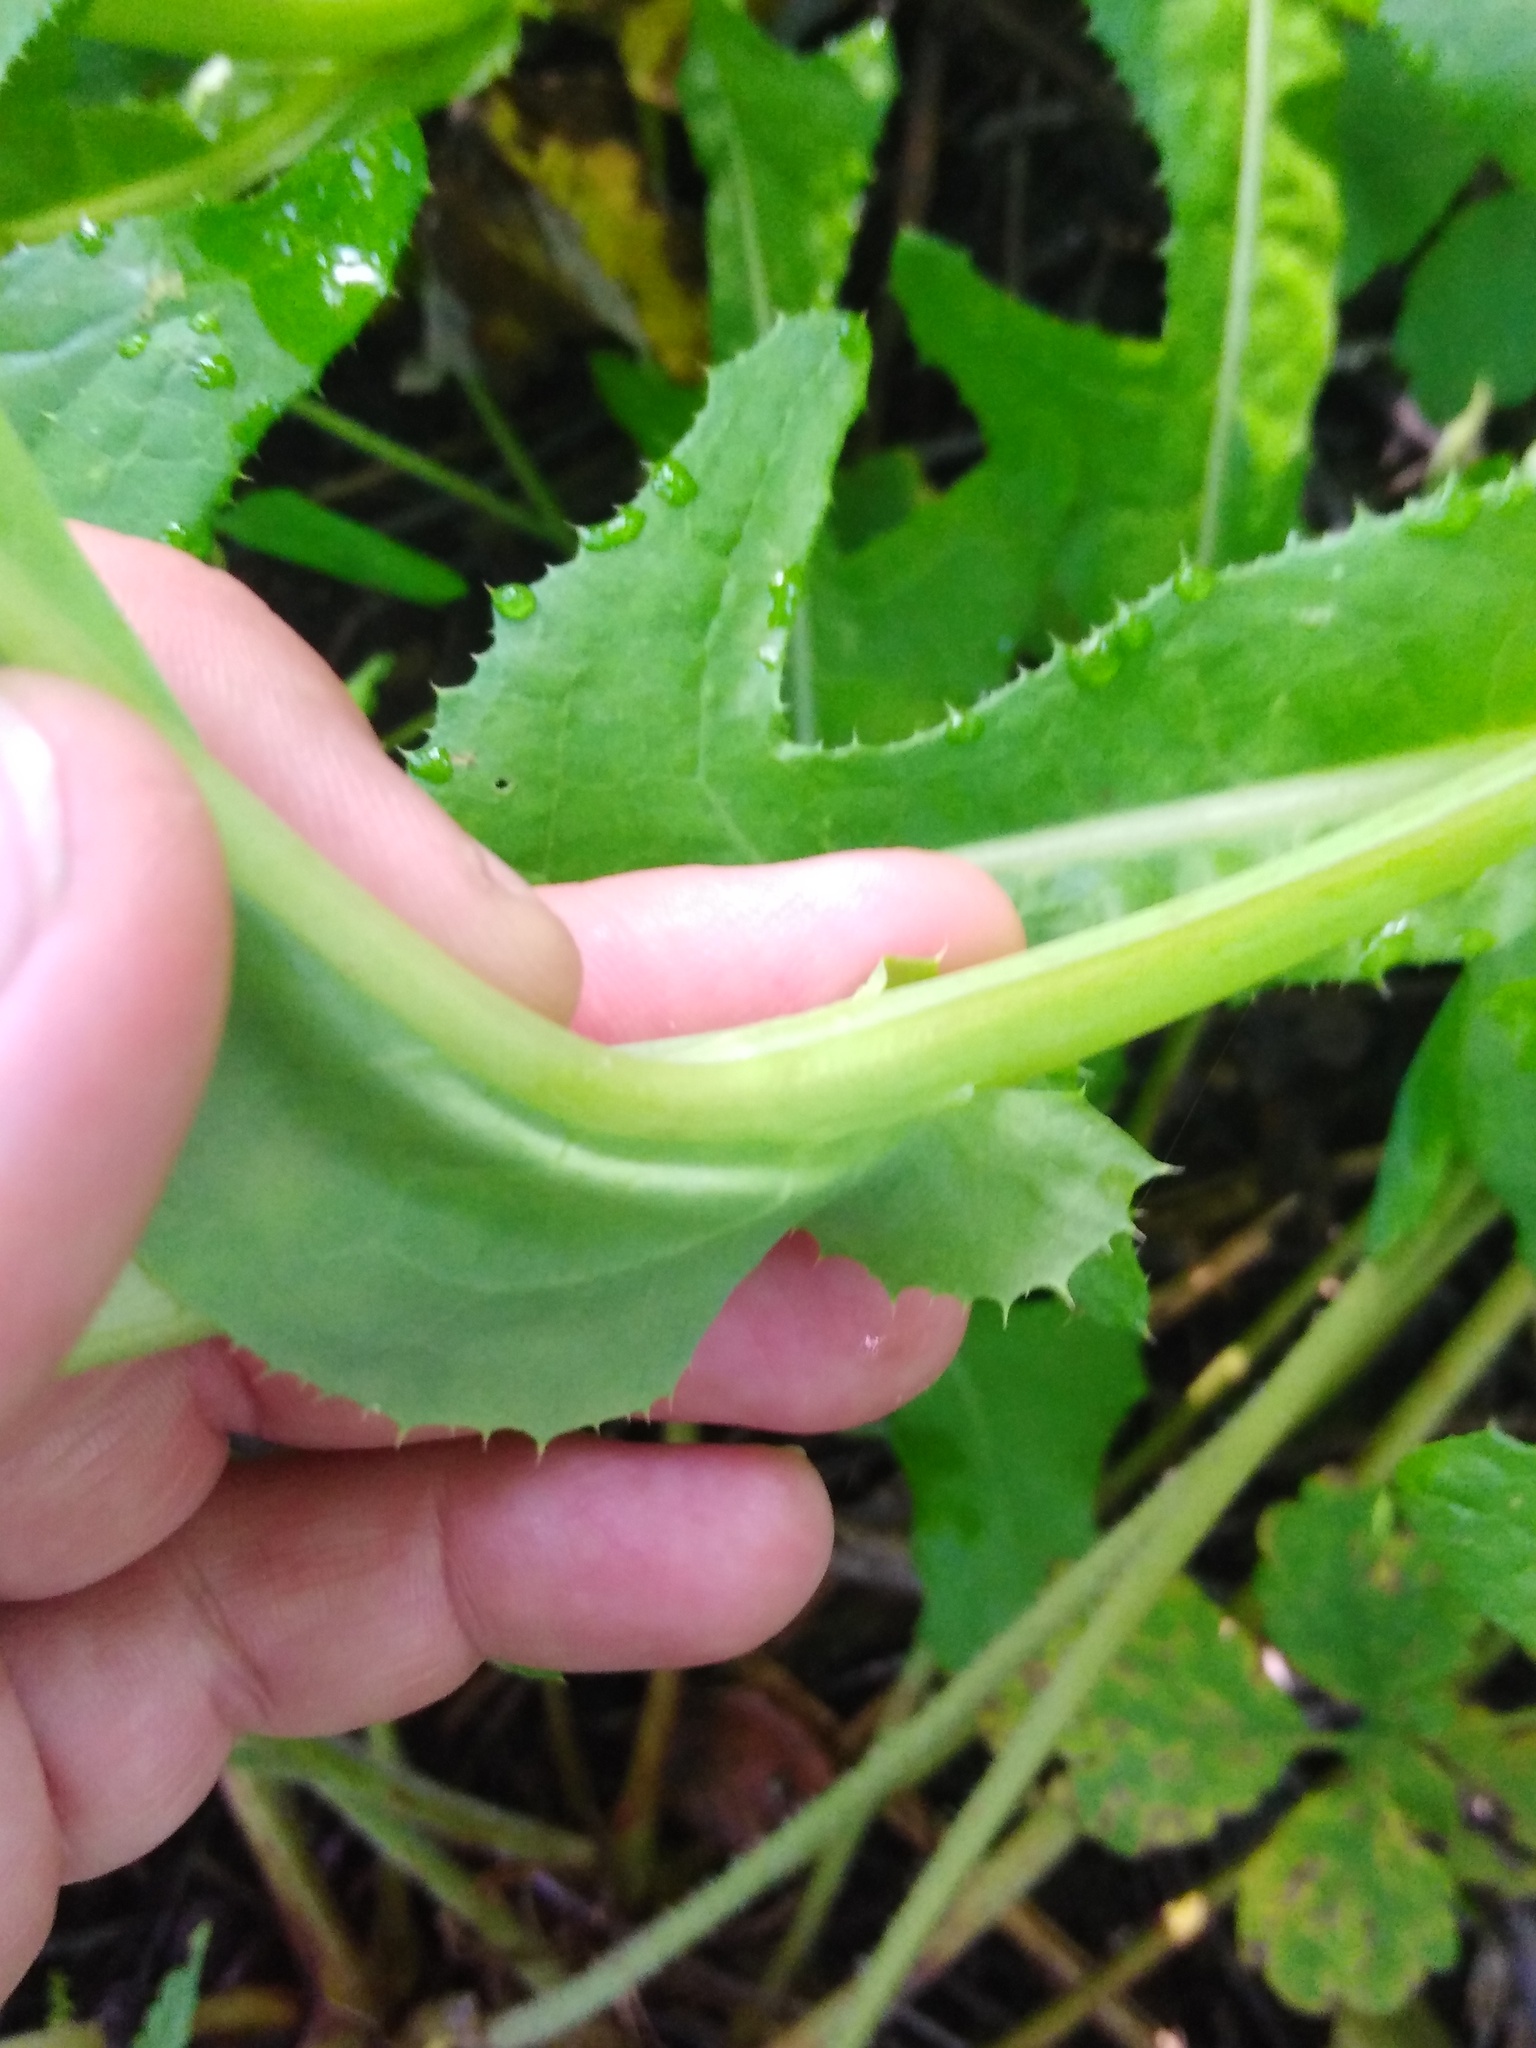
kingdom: Plantae
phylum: Tracheophyta
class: Magnoliopsida
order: Asterales
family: Asteraceae
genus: Sonchus
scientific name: Sonchus arvensis
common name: Perennial sow-thistle
